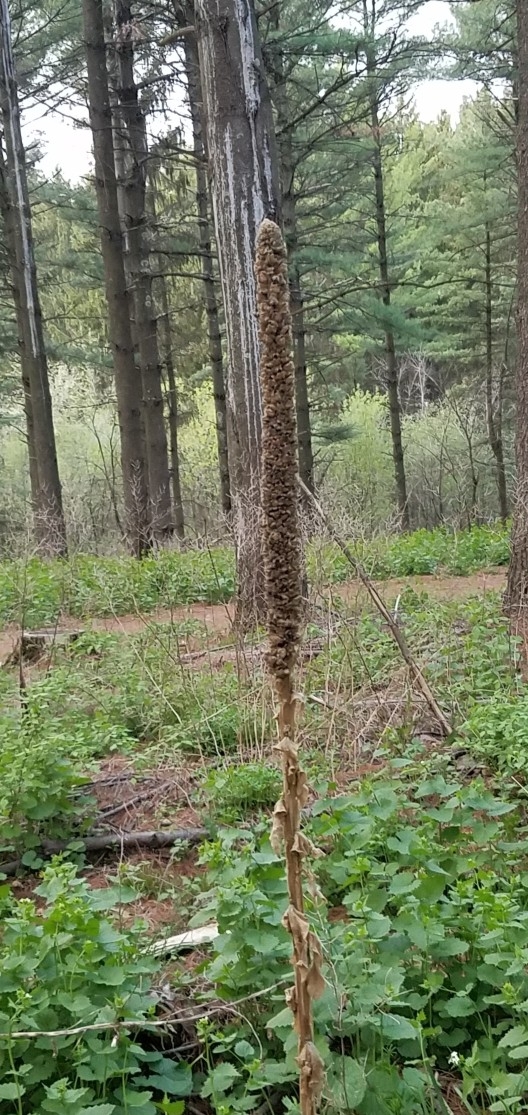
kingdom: Plantae
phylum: Tracheophyta
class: Magnoliopsida
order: Lamiales
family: Scrophulariaceae
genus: Verbascum
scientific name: Verbascum thapsus
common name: Common mullein
